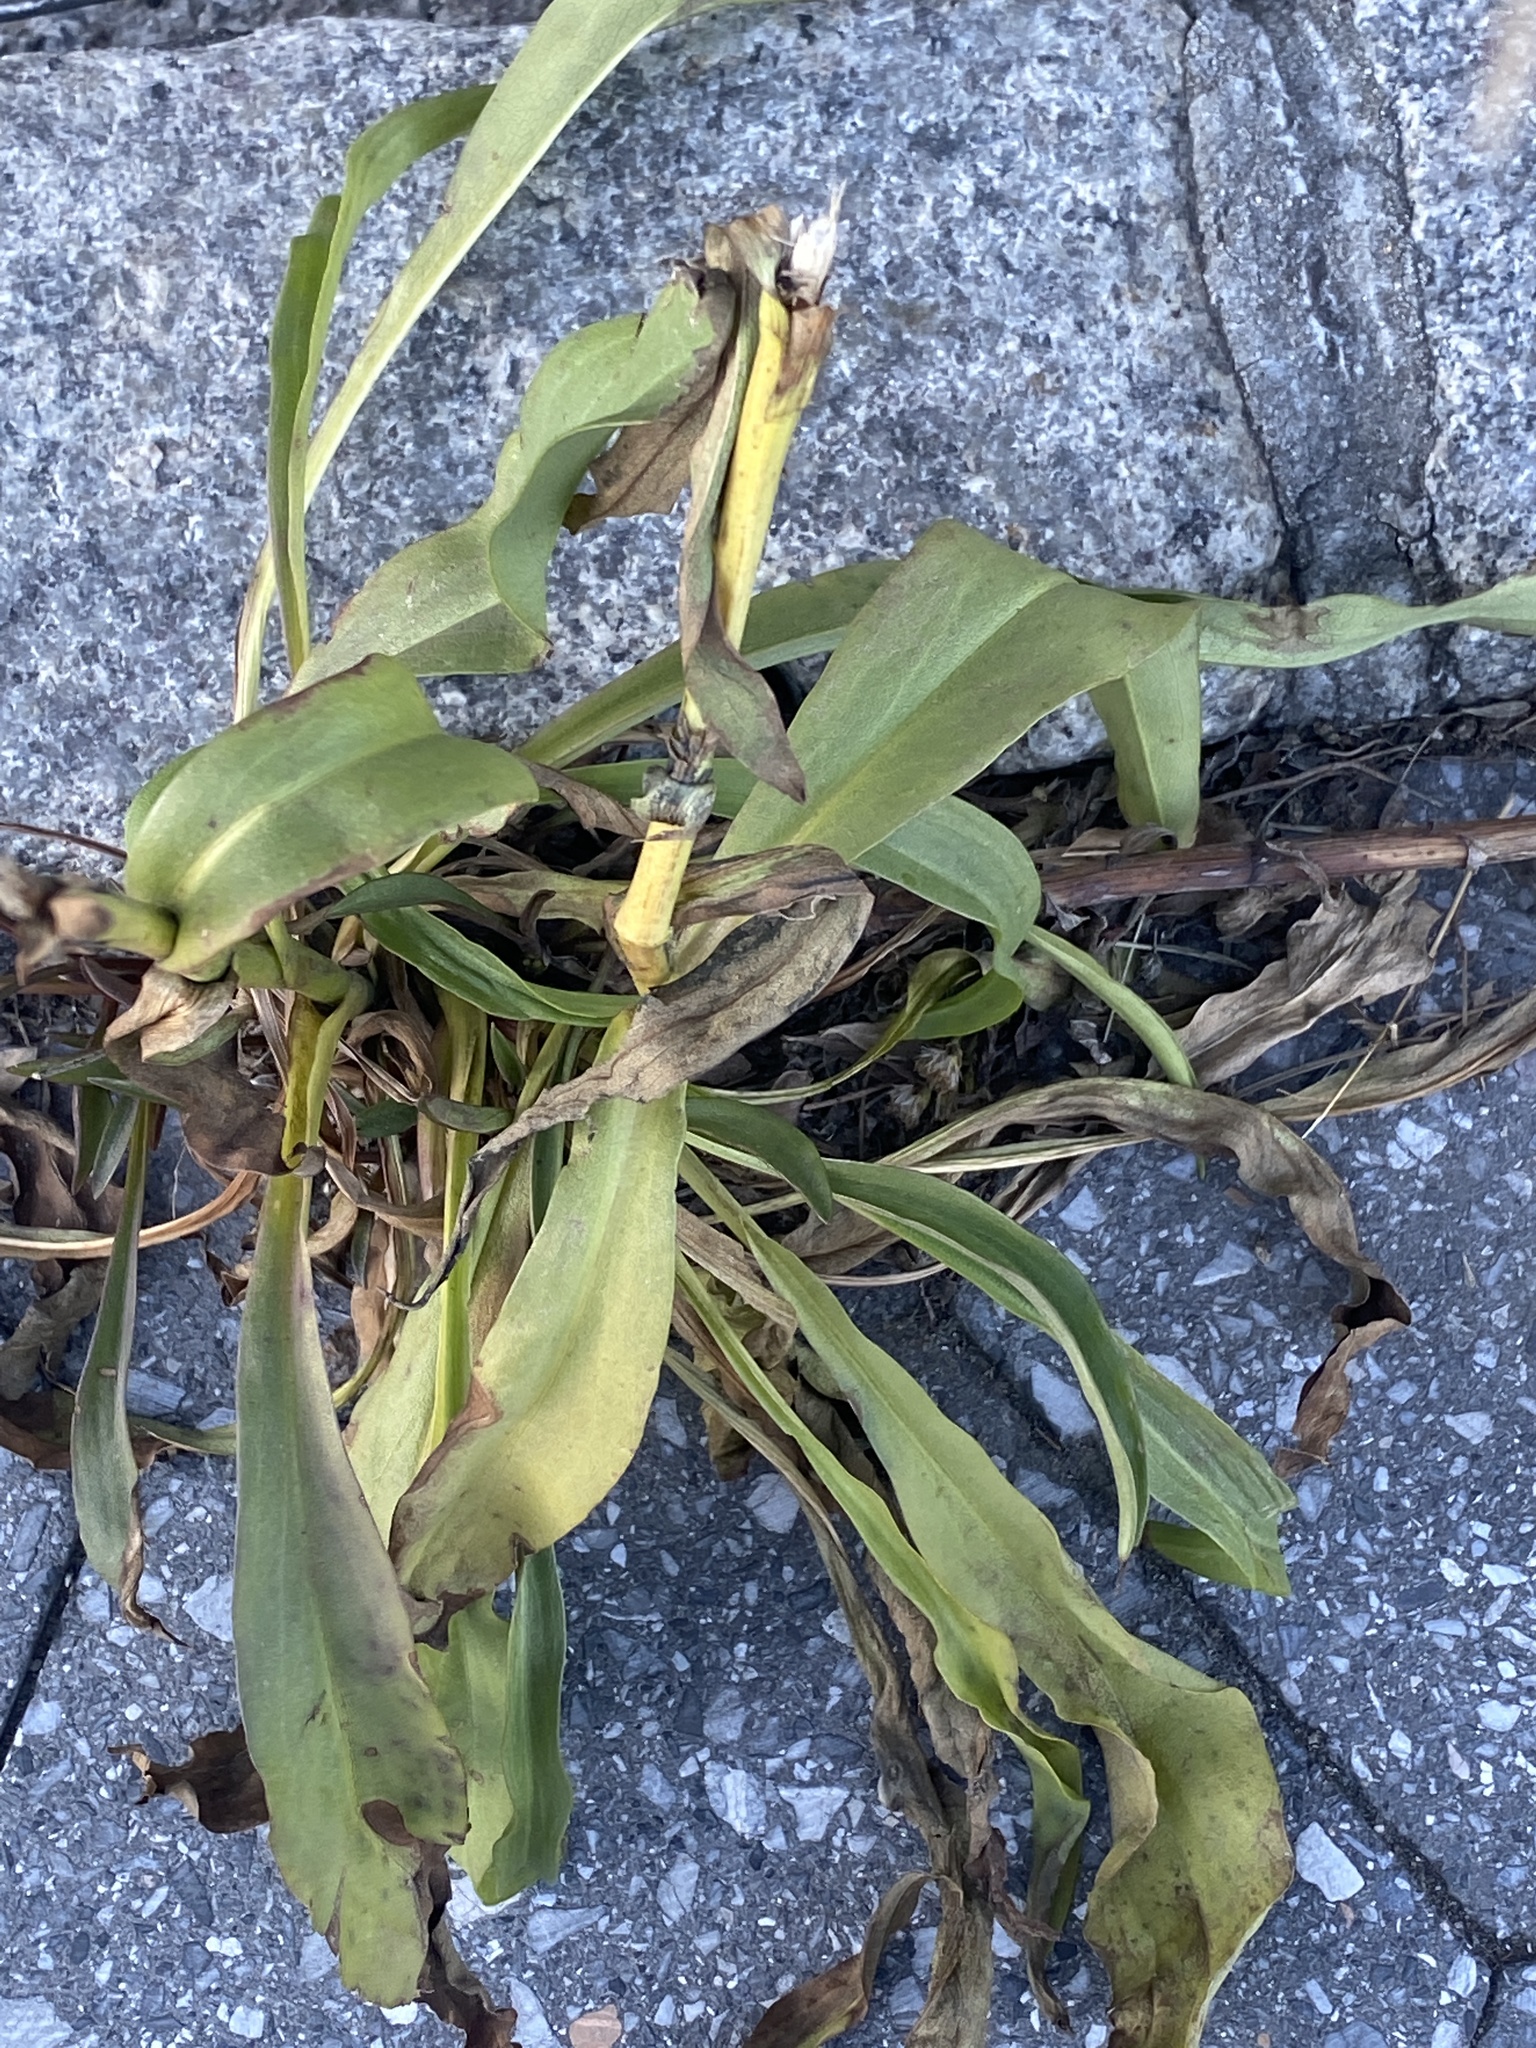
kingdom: Plantae
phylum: Tracheophyta
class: Magnoliopsida
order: Asterales
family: Asteraceae
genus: Solidago
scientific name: Solidago sempervirens
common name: Salt-marsh goldenrod
